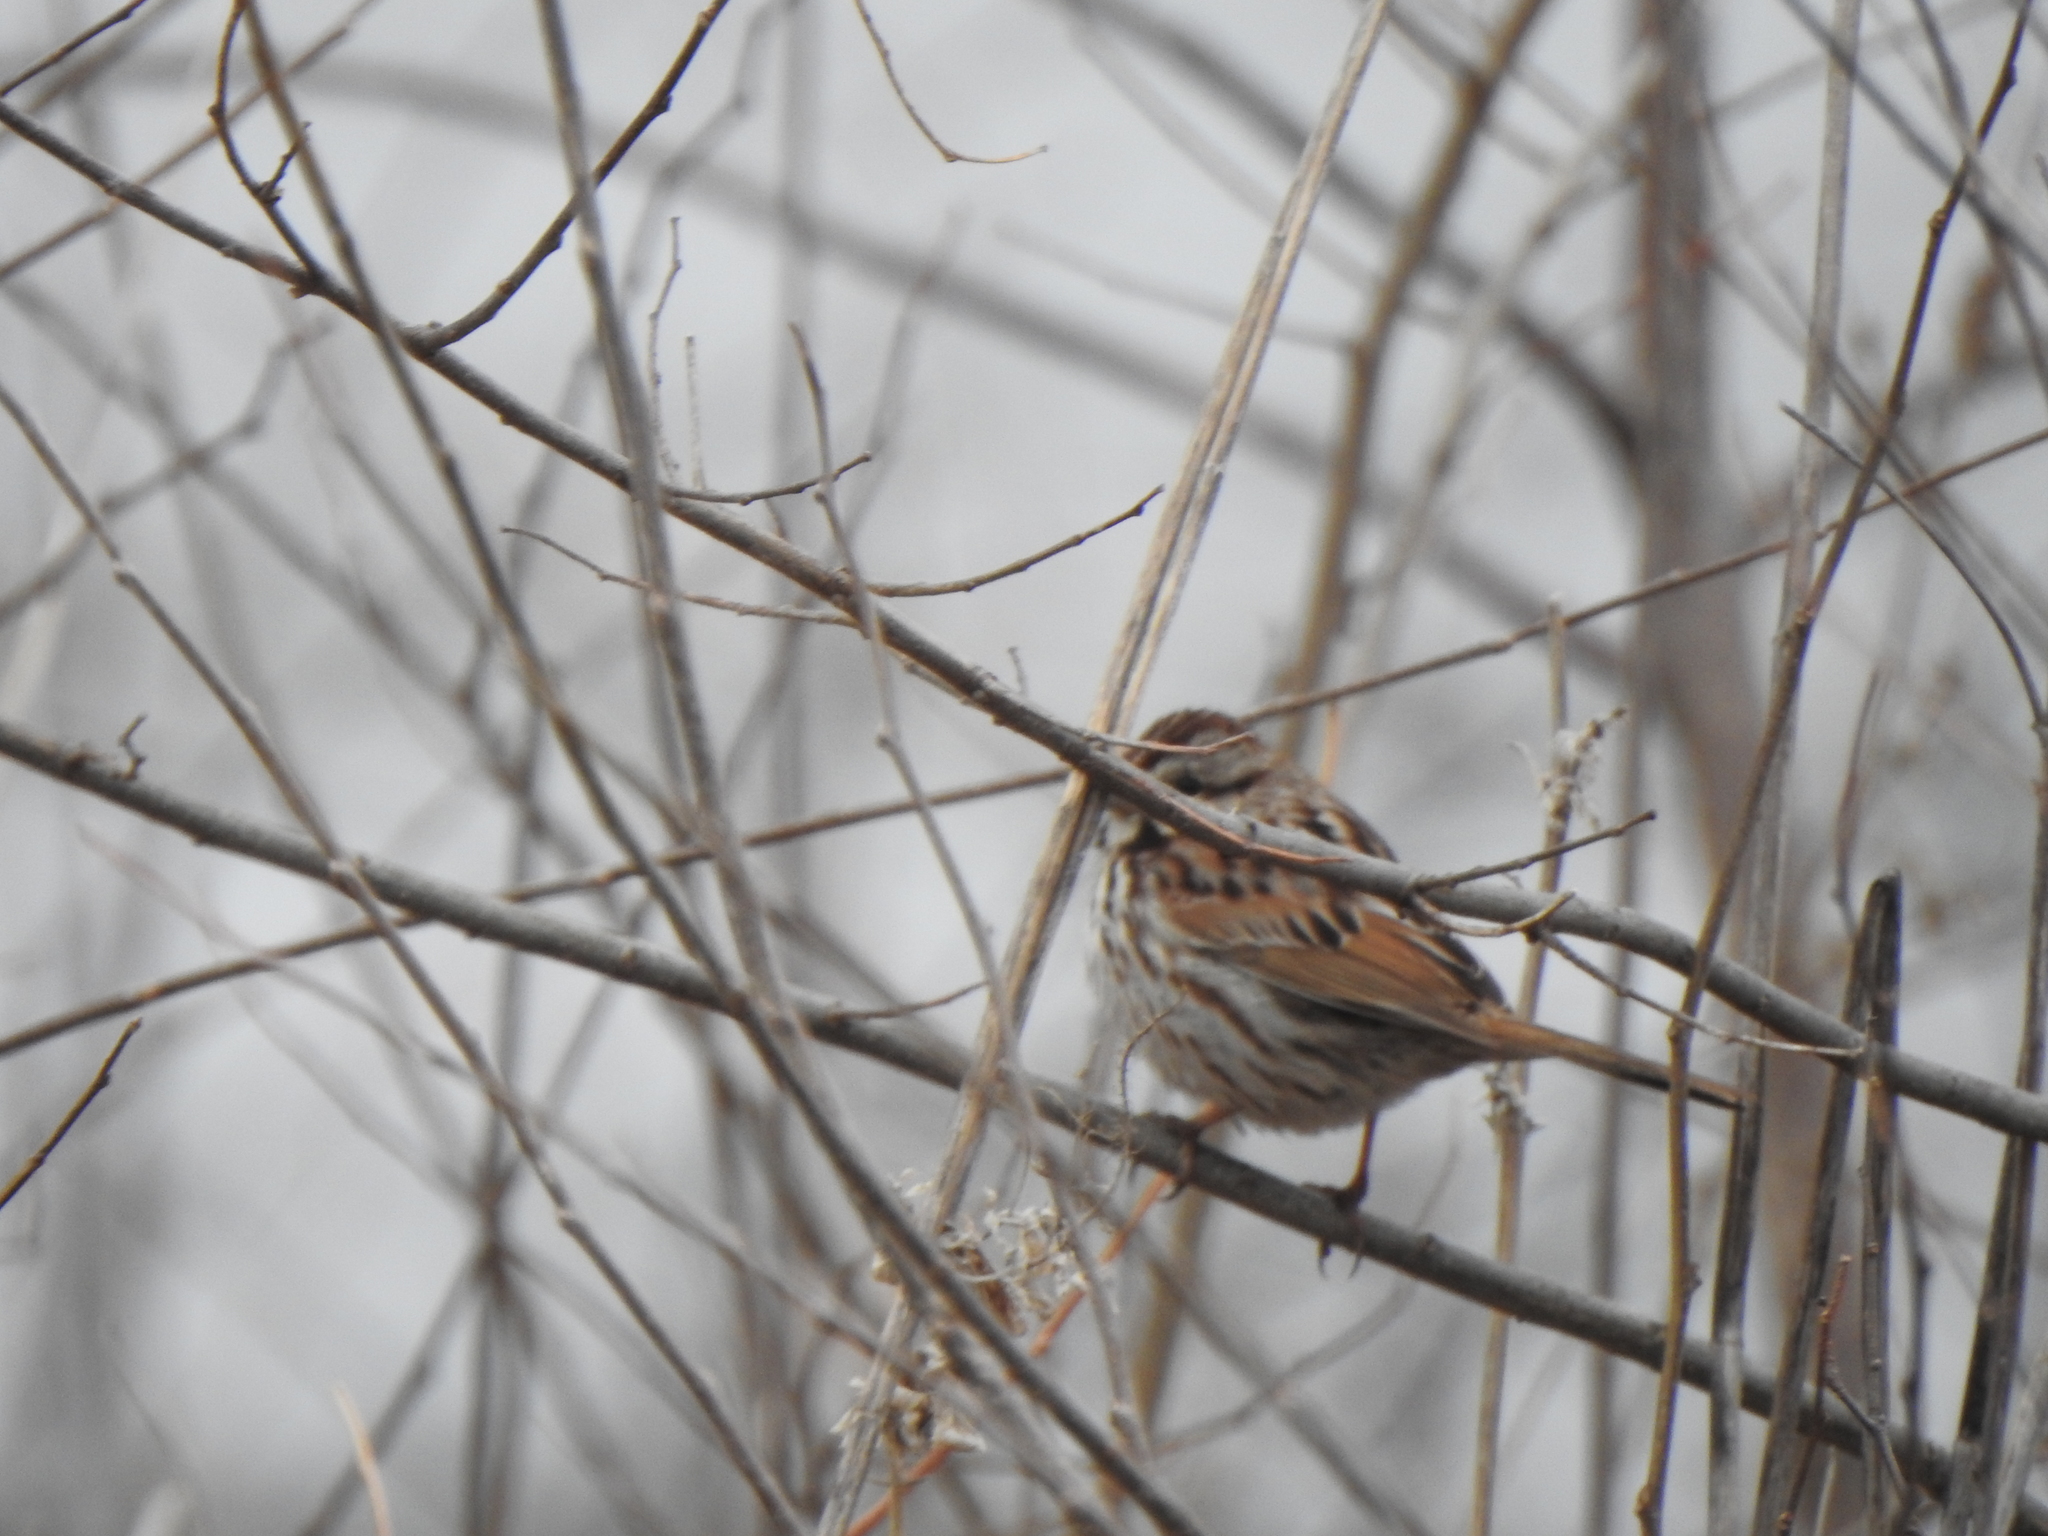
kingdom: Animalia
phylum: Chordata
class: Aves
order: Passeriformes
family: Passerellidae
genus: Melospiza
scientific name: Melospiza melodia
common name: Song sparrow
